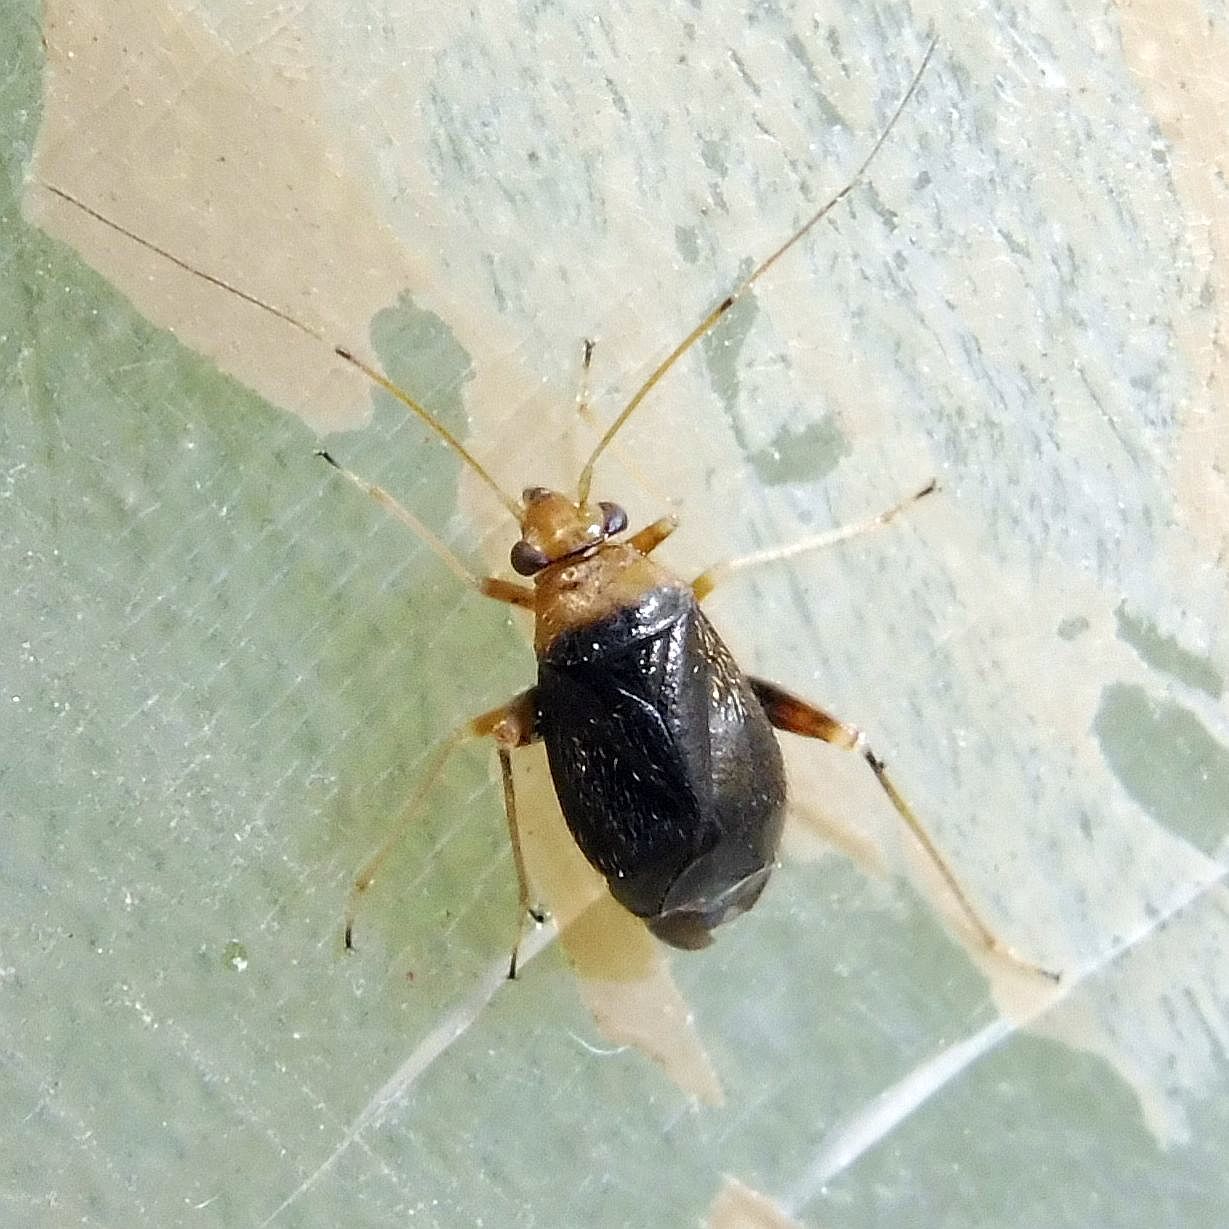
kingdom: Animalia
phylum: Arthropoda
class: Insecta
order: Hemiptera
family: Miridae
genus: Halticus
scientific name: Halticus luteicollis
